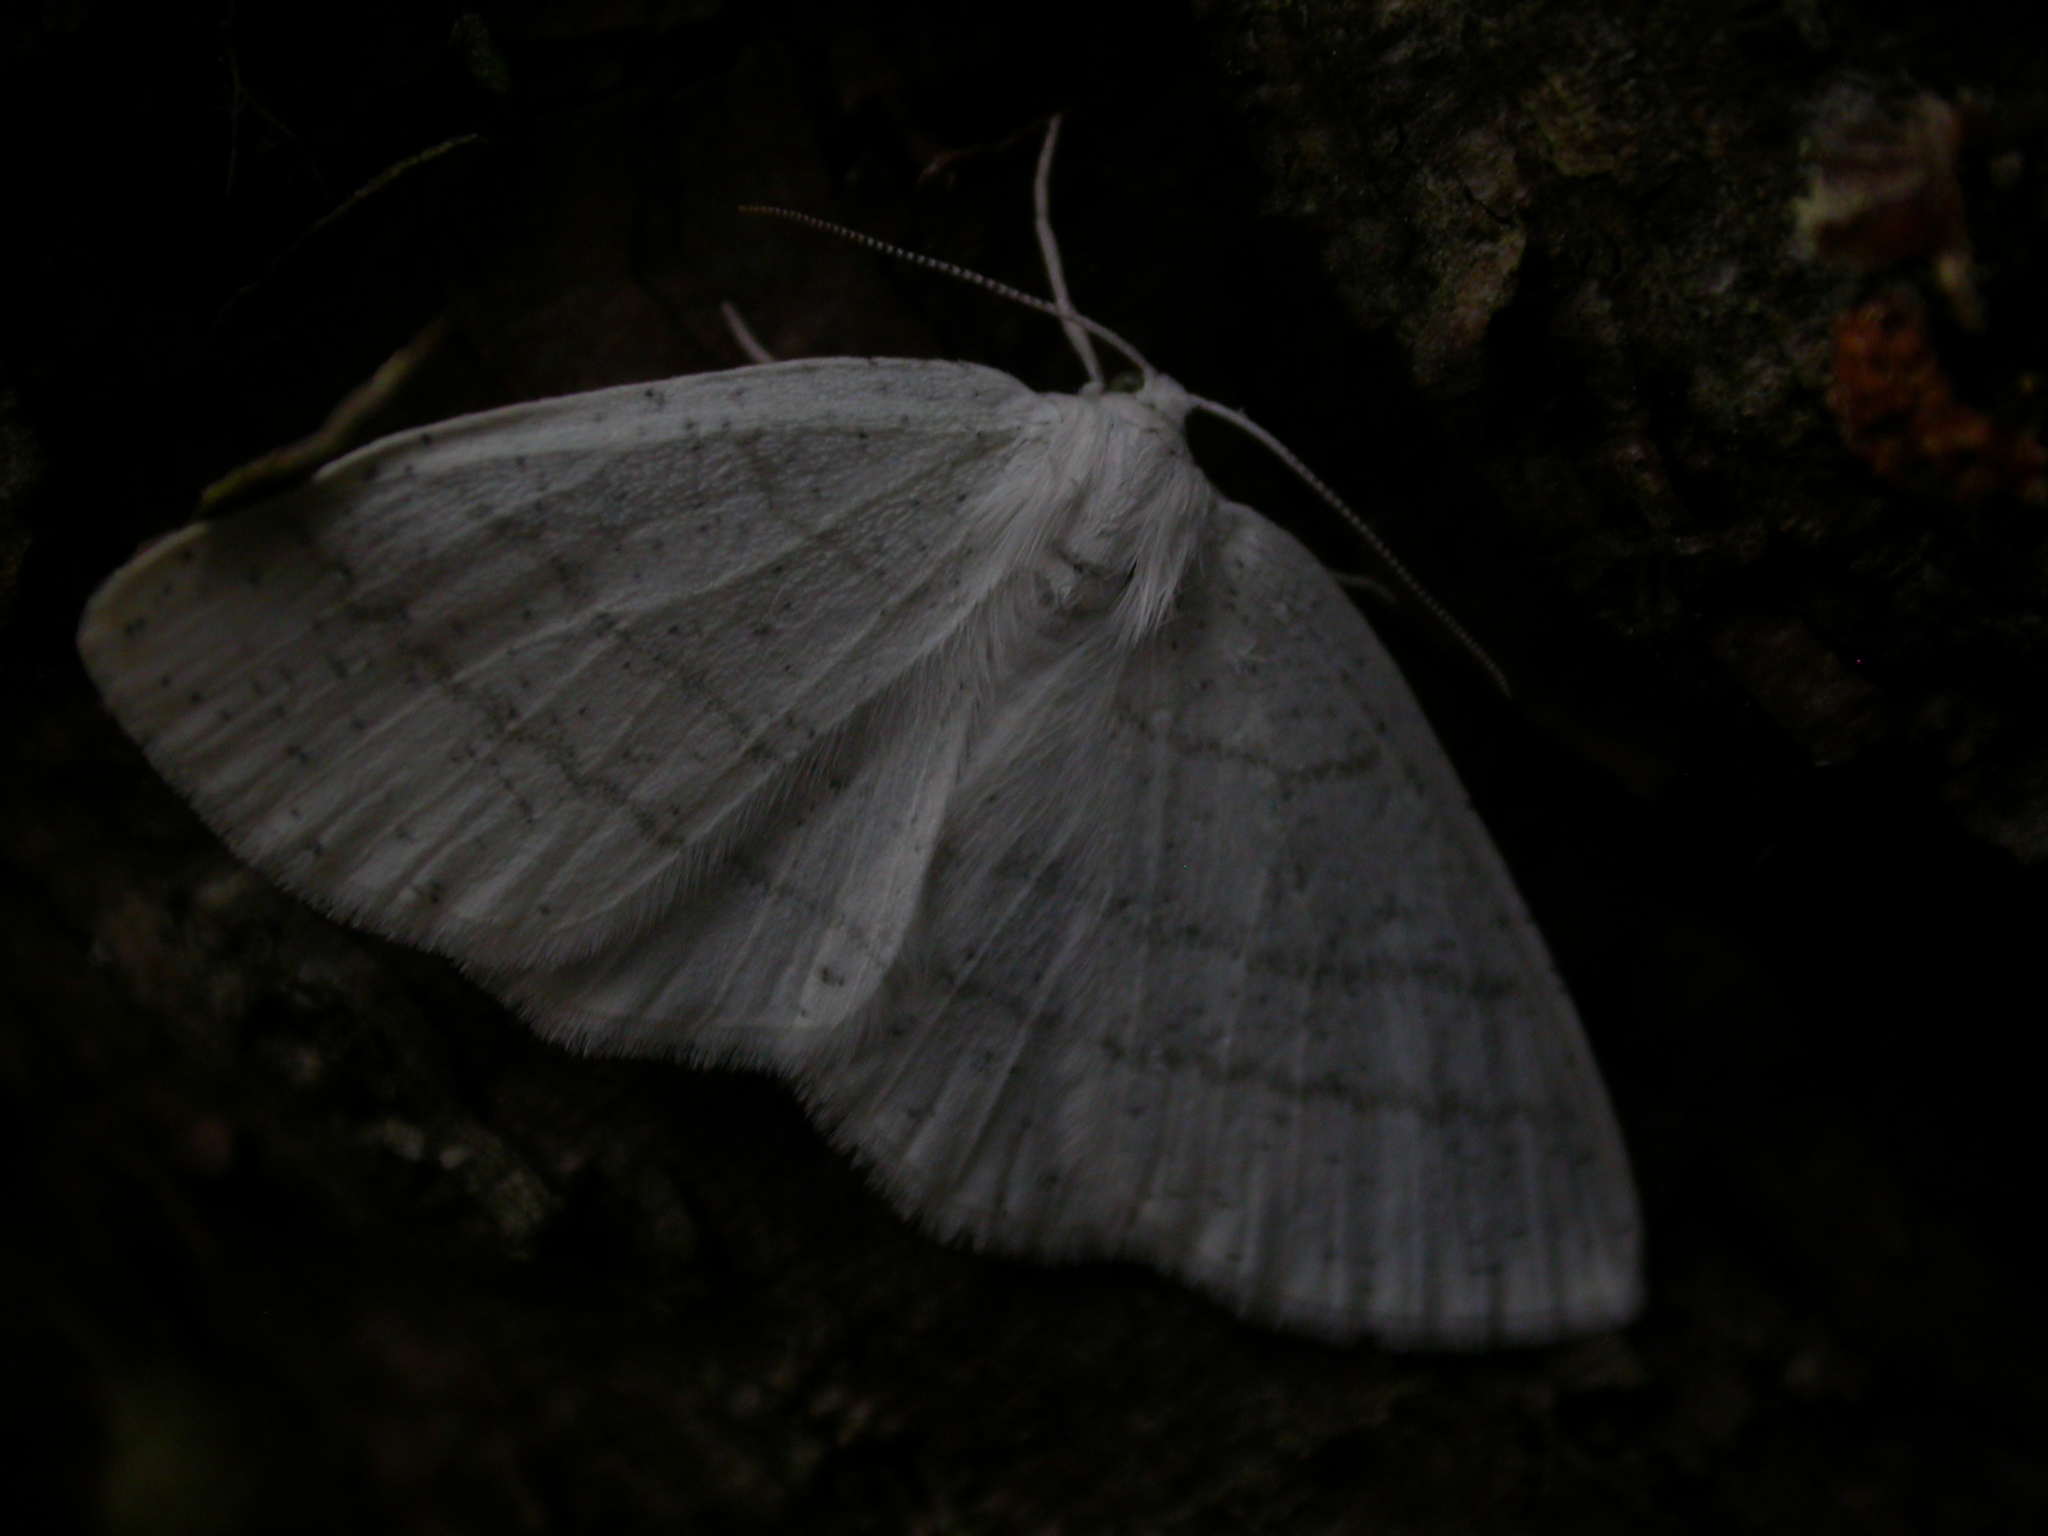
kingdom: Animalia
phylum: Arthropoda
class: Insecta
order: Lepidoptera
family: Geometridae
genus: Cabera
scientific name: Cabera pusaria
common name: Common white wave
